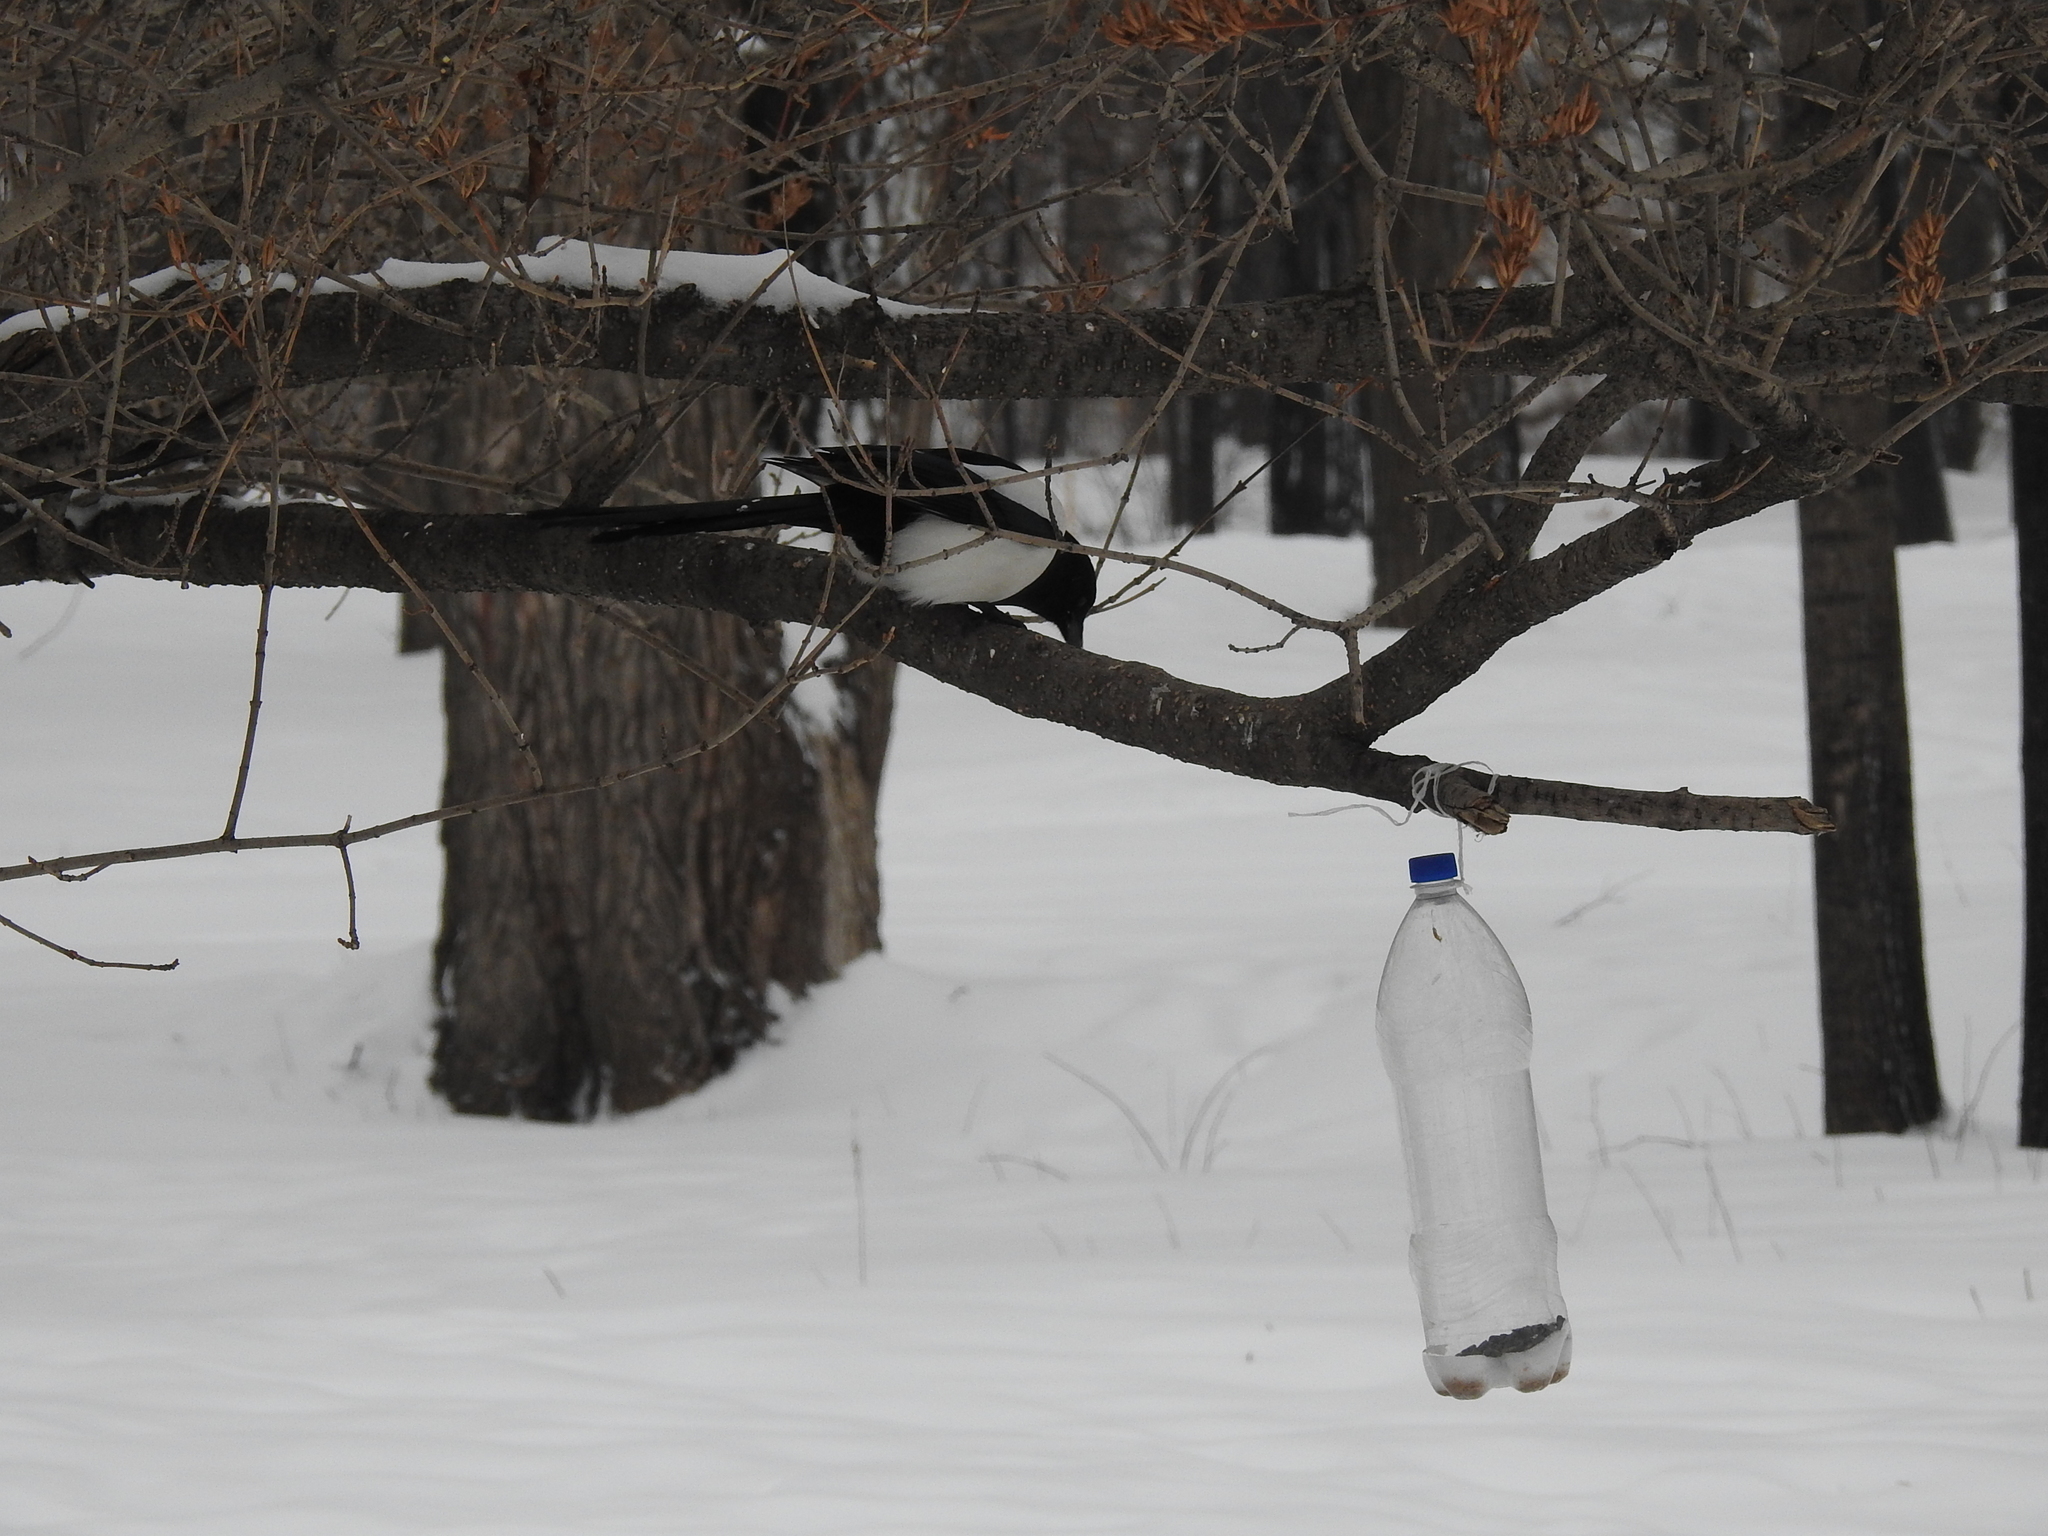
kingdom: Animalia
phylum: Chordata
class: Aves
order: Passeriformes
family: Corvidae
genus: Pica
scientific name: Pica pica
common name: Eurasian magpie
